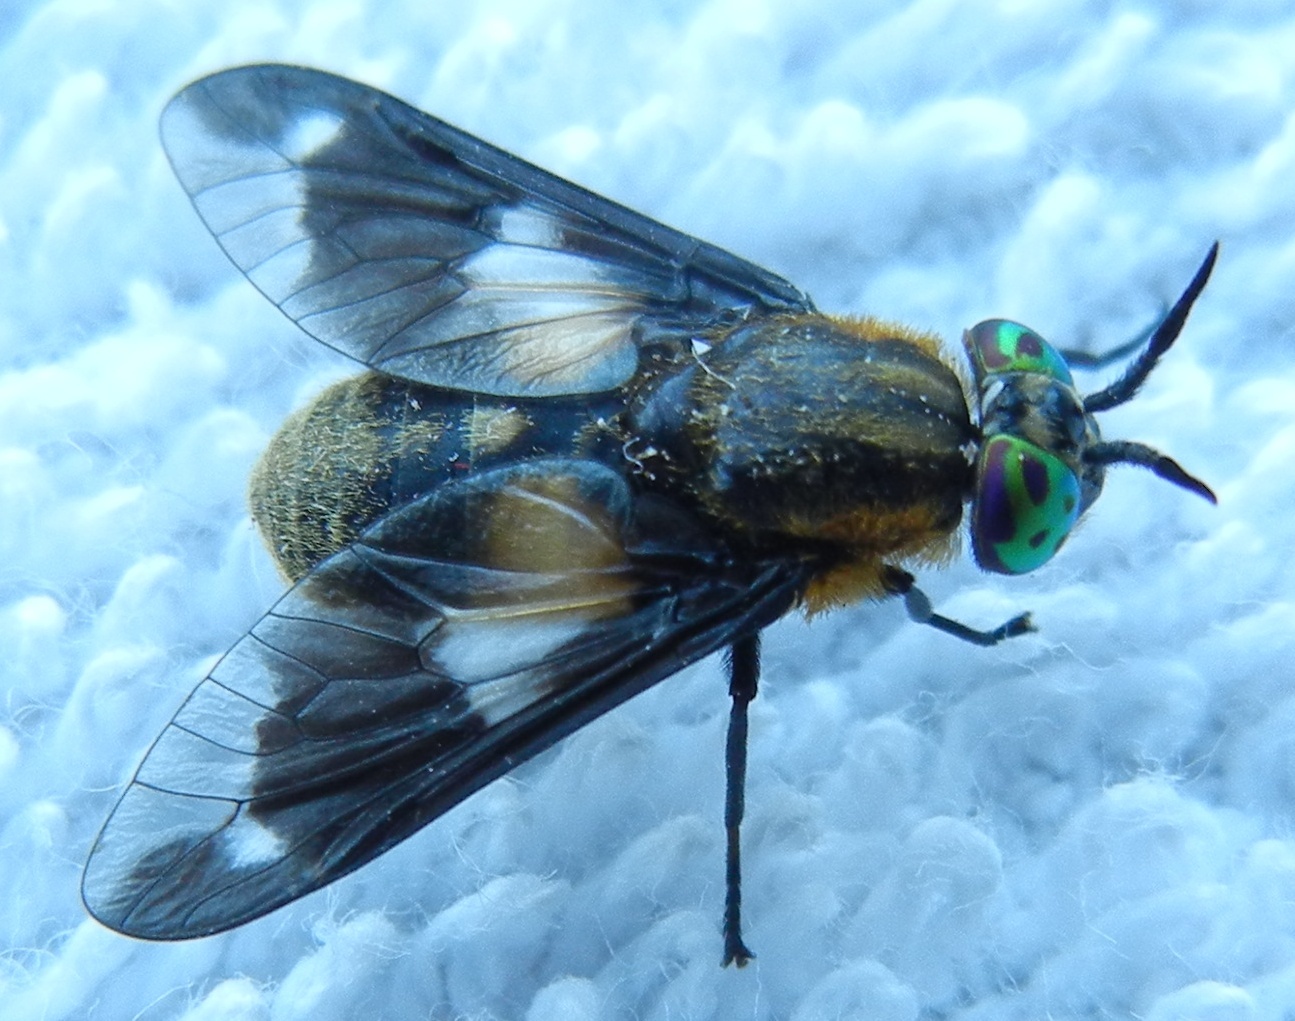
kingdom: Animalia
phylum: Arthropoda
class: Insecta
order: Diptera
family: Tabanidae
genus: Chrysops
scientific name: Chrysops caecutiens
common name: Splayed deerfly
